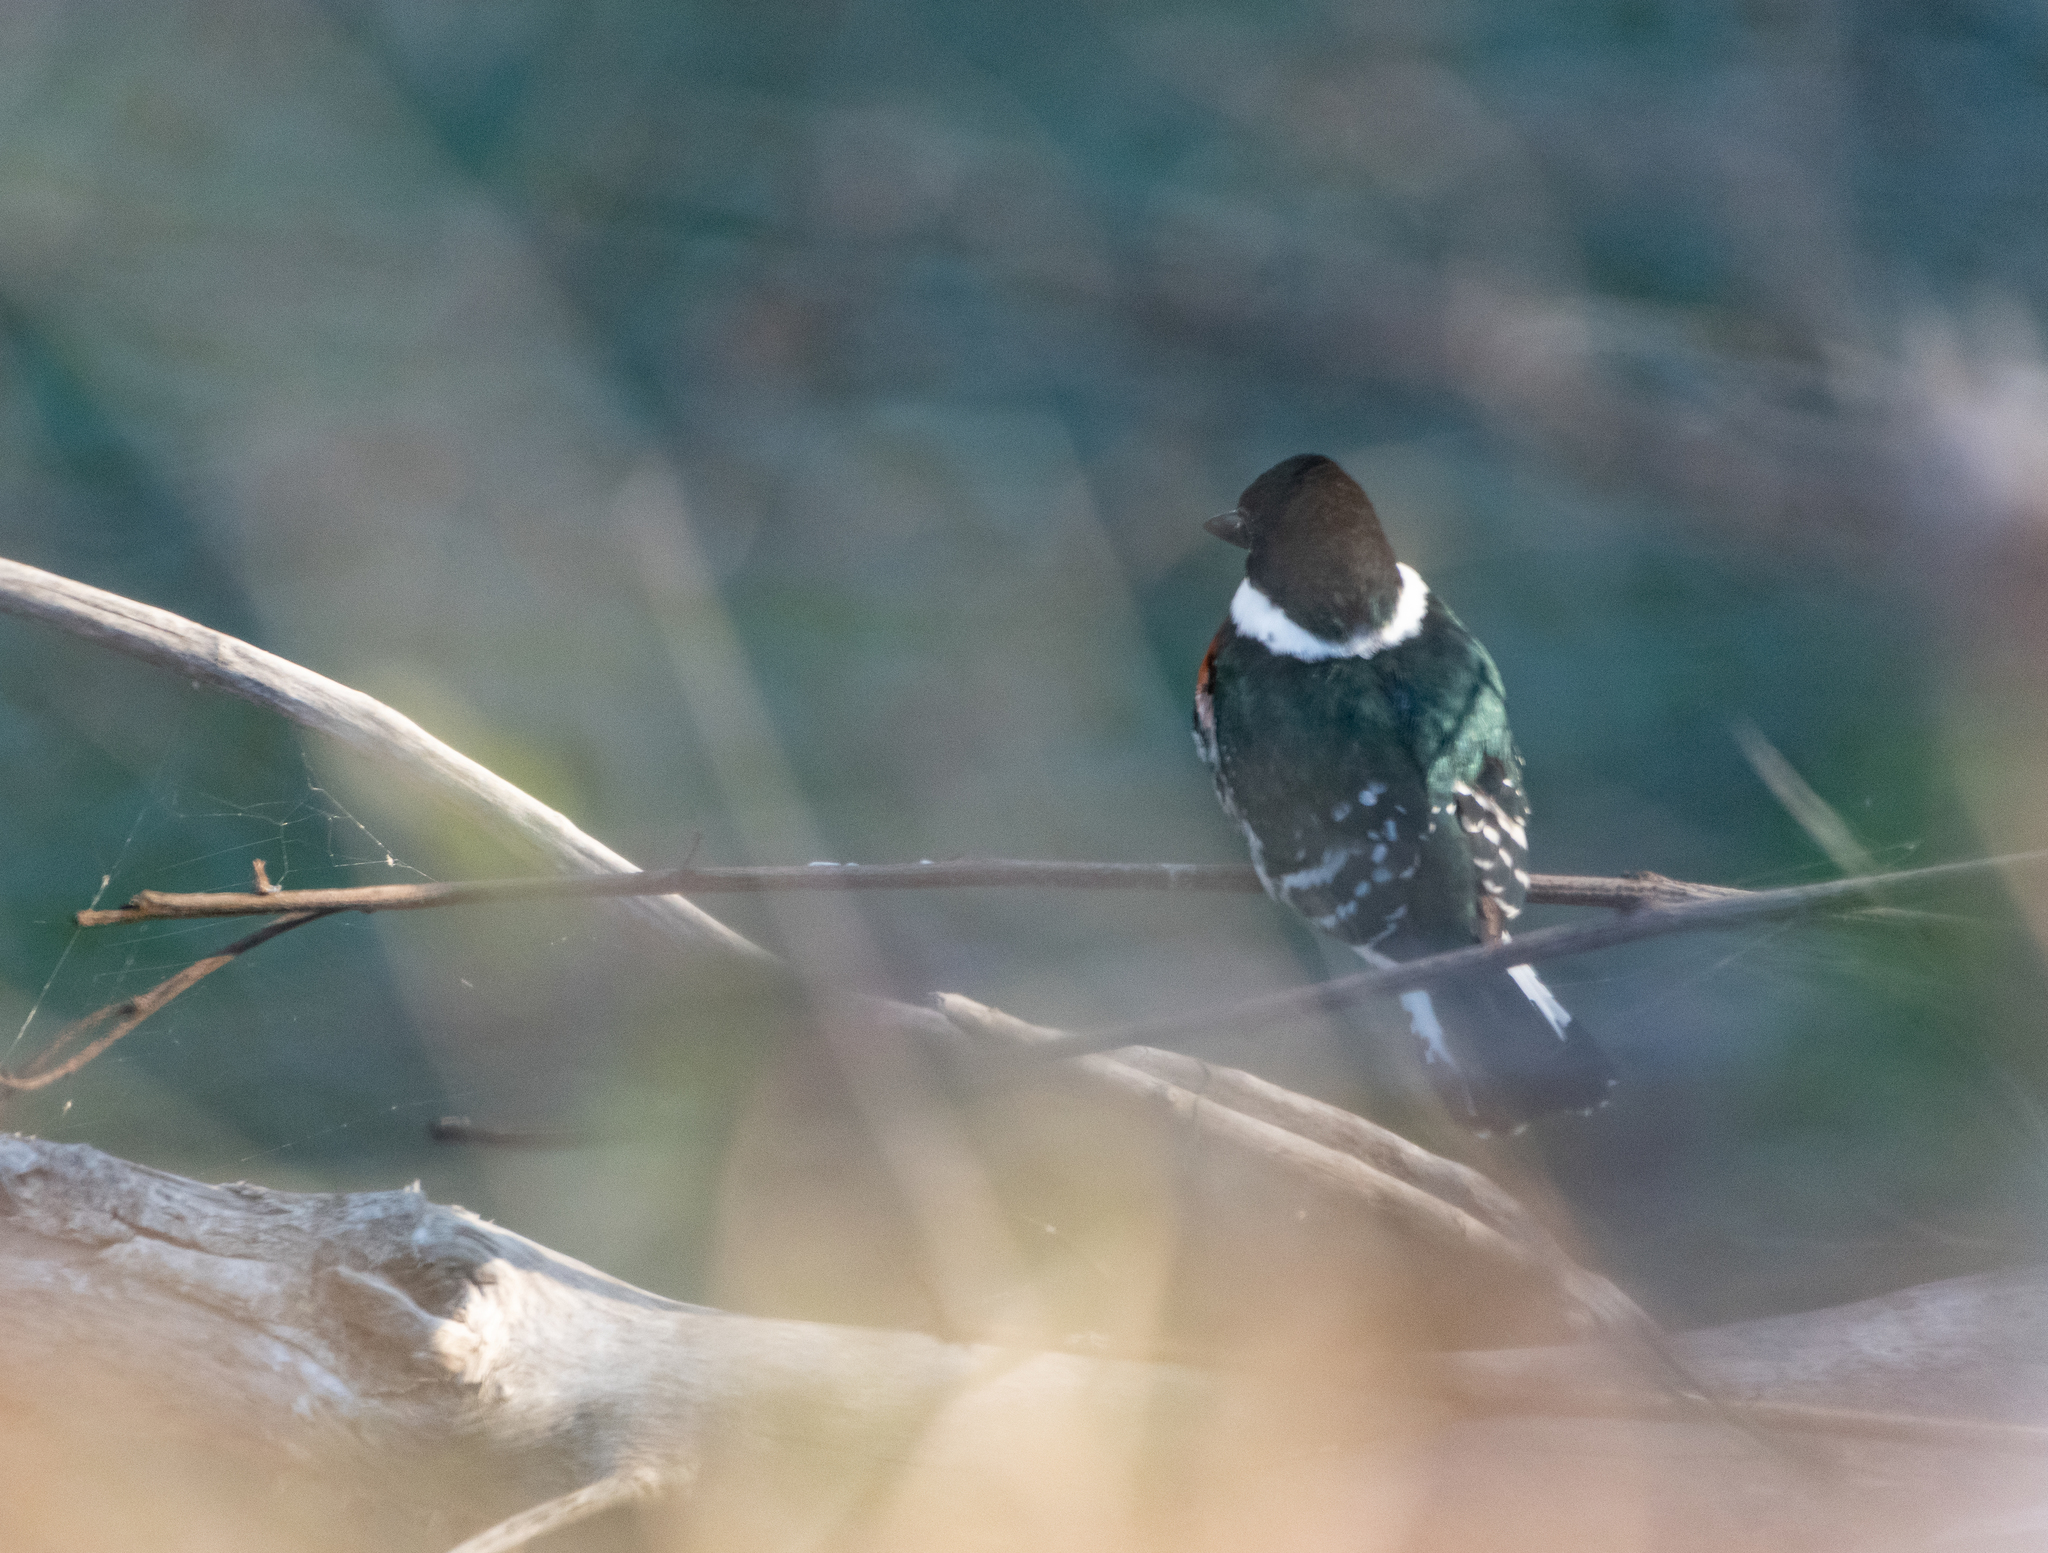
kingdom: Animalia
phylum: Chordata
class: Aves
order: Coraciiformes
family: Alcedinidae
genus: Chloroceryle
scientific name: Chloroceryle americana
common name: Green kingfisher
